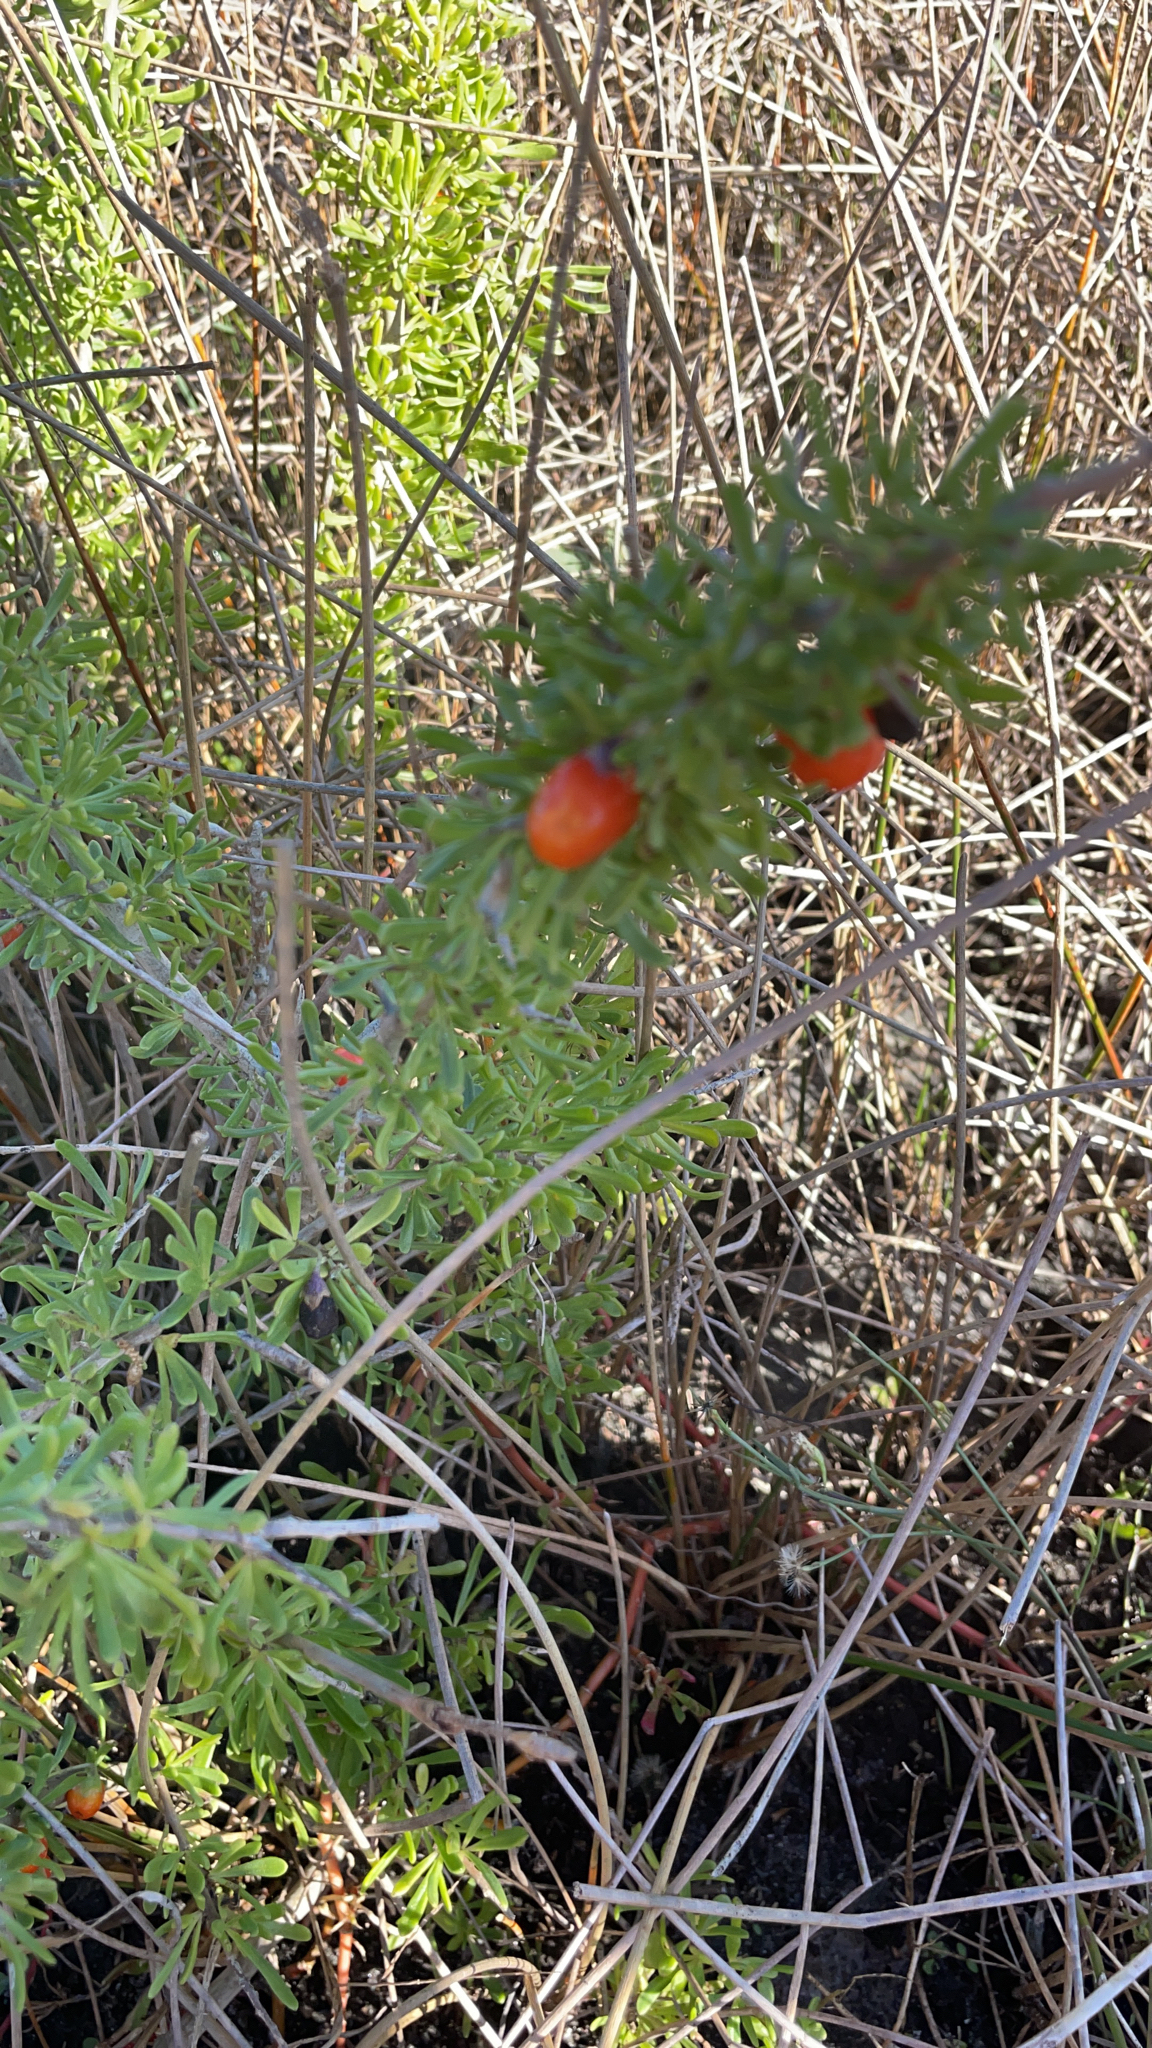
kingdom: Plantae
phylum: Tracheophyta
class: Magnoliopsida
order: Solanales
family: Solanaceae
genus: Lycium
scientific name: Lycium carolinianum
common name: Christmasberry
